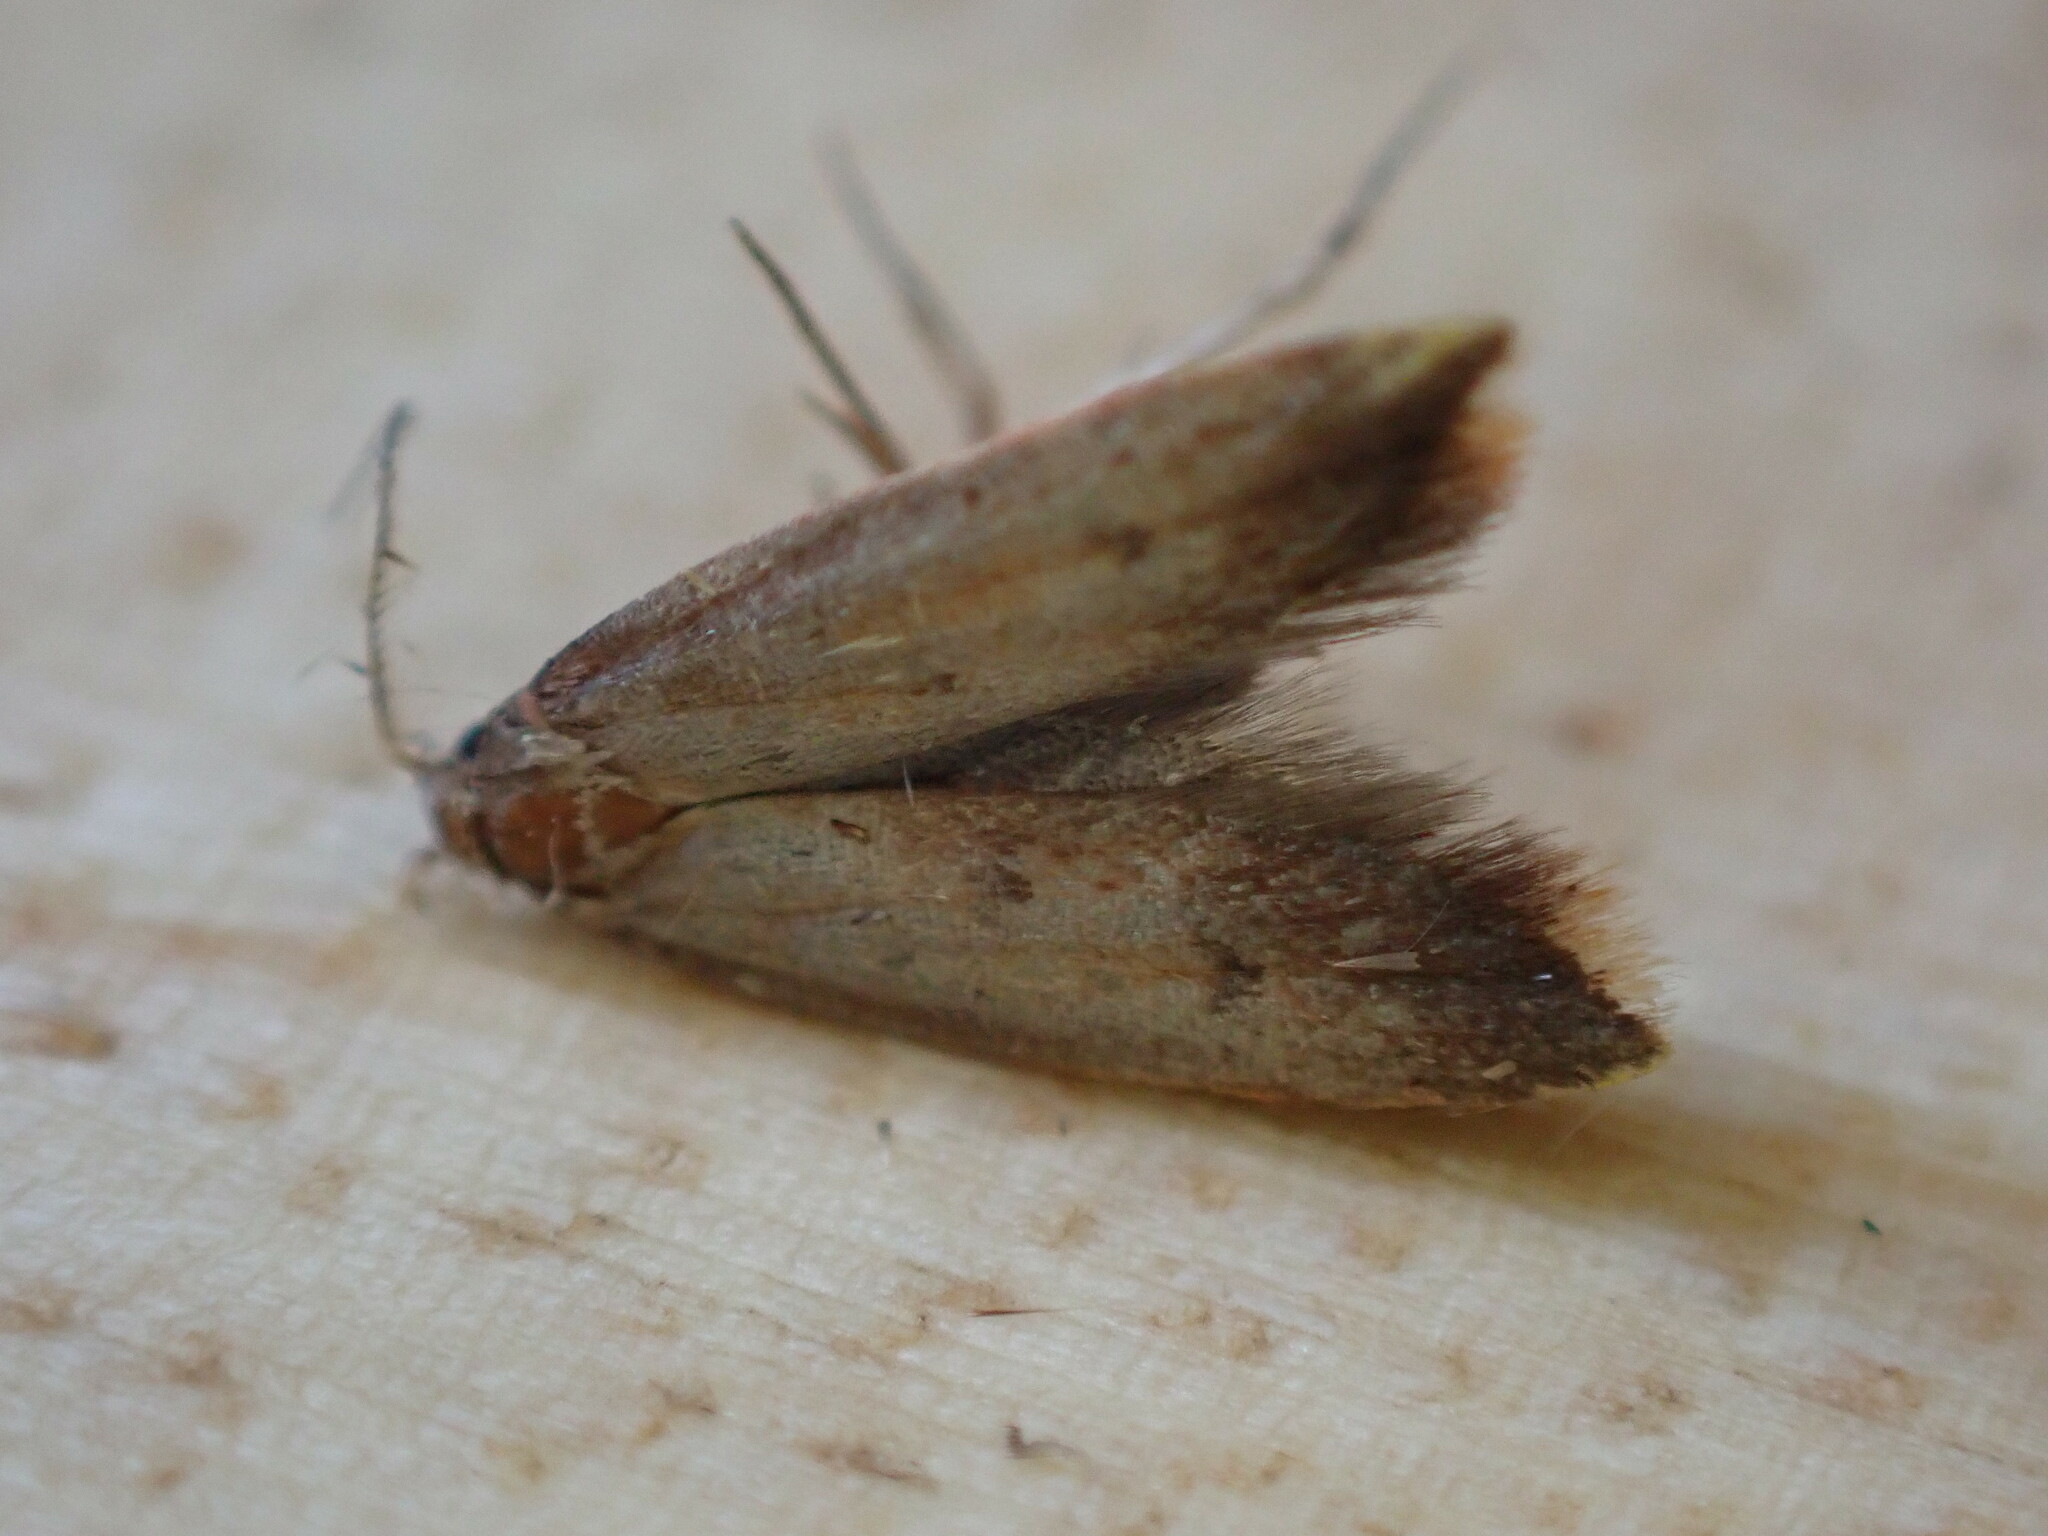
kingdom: Animalia
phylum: Arthropoda
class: Insecta
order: Lepidoptera
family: Oecophoridae
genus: Tachystola
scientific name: Tachystola acroxantha
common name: Ruddy streak
